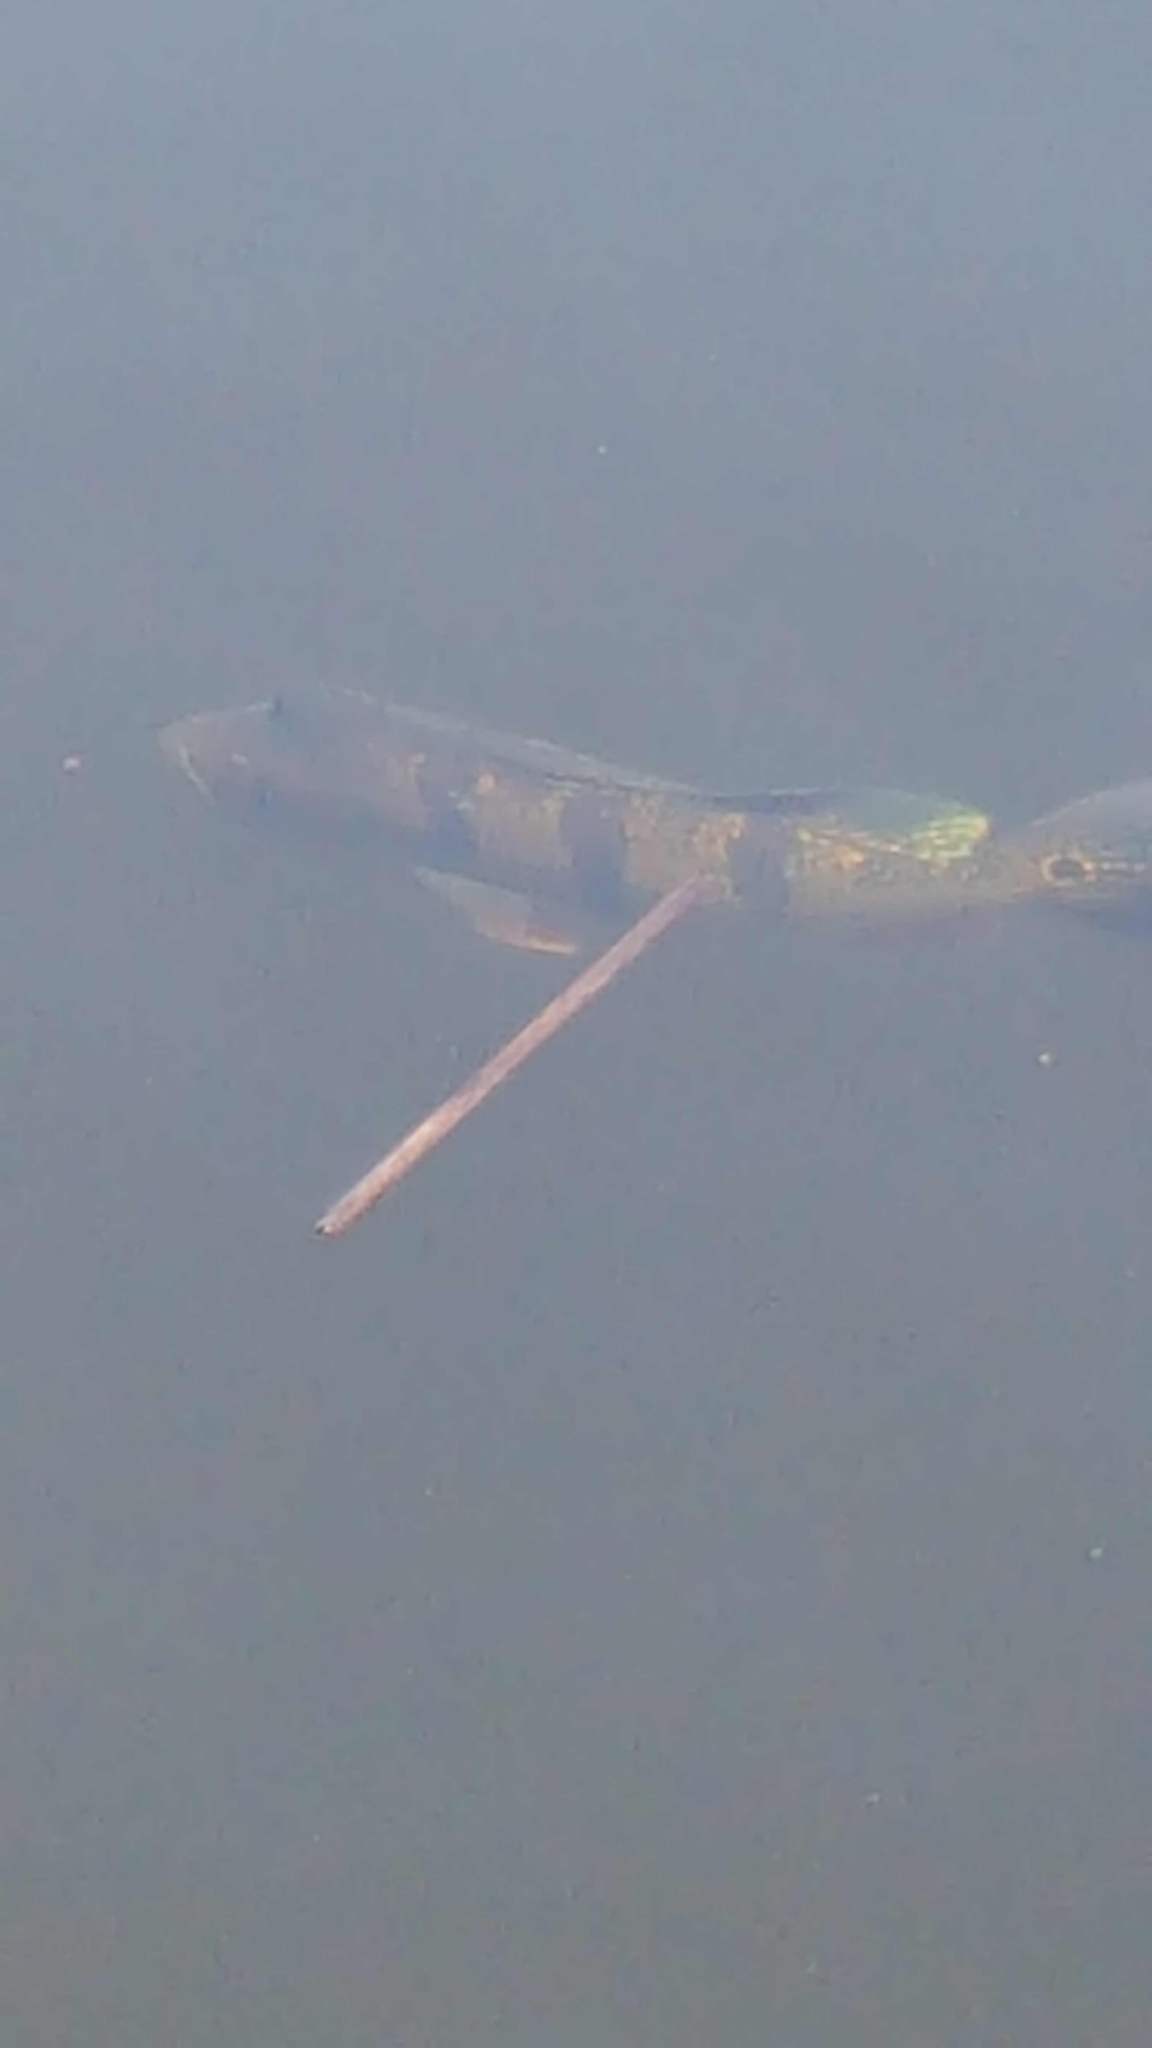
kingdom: Animalia
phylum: Chordata
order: Perciformes
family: Cichlidae
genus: Cichla
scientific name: Cichla ocellaris
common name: Peacock cichlid
